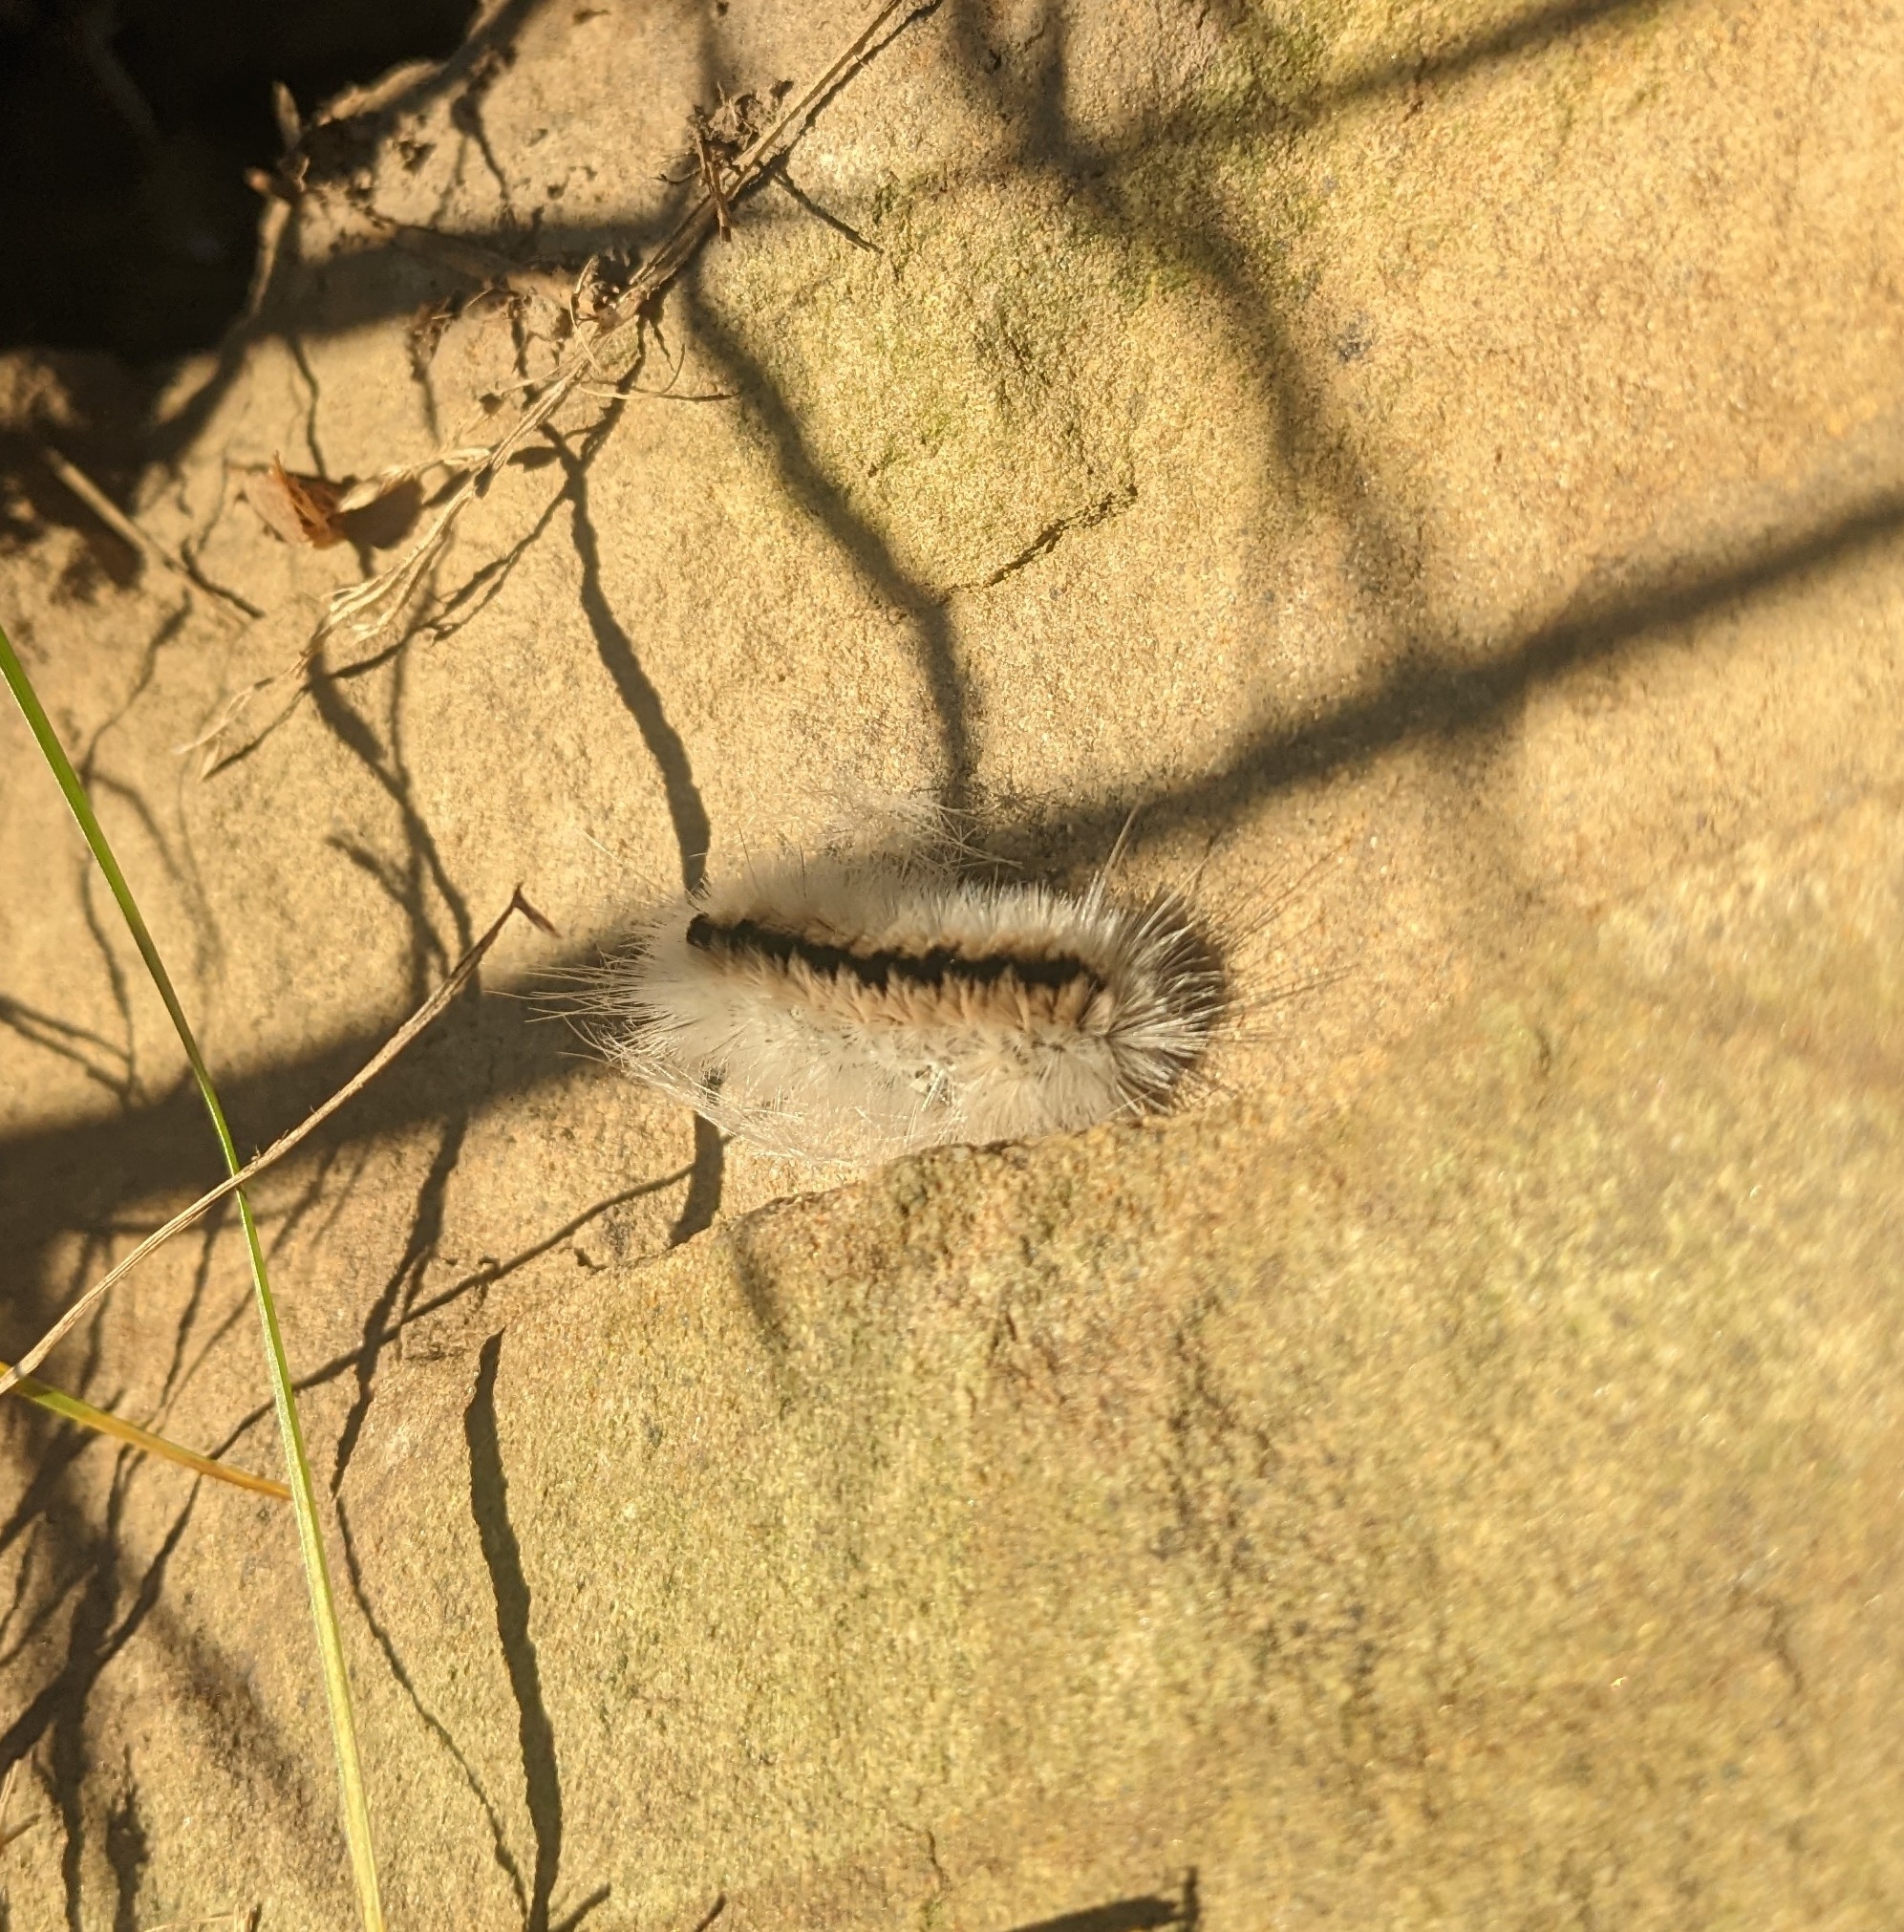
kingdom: Animalia
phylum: Arthropoda
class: Insecta
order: Lepidoptera
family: Erebidae
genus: Lophocampa
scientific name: Lophocampa caryae
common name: Hickory tussock moth
